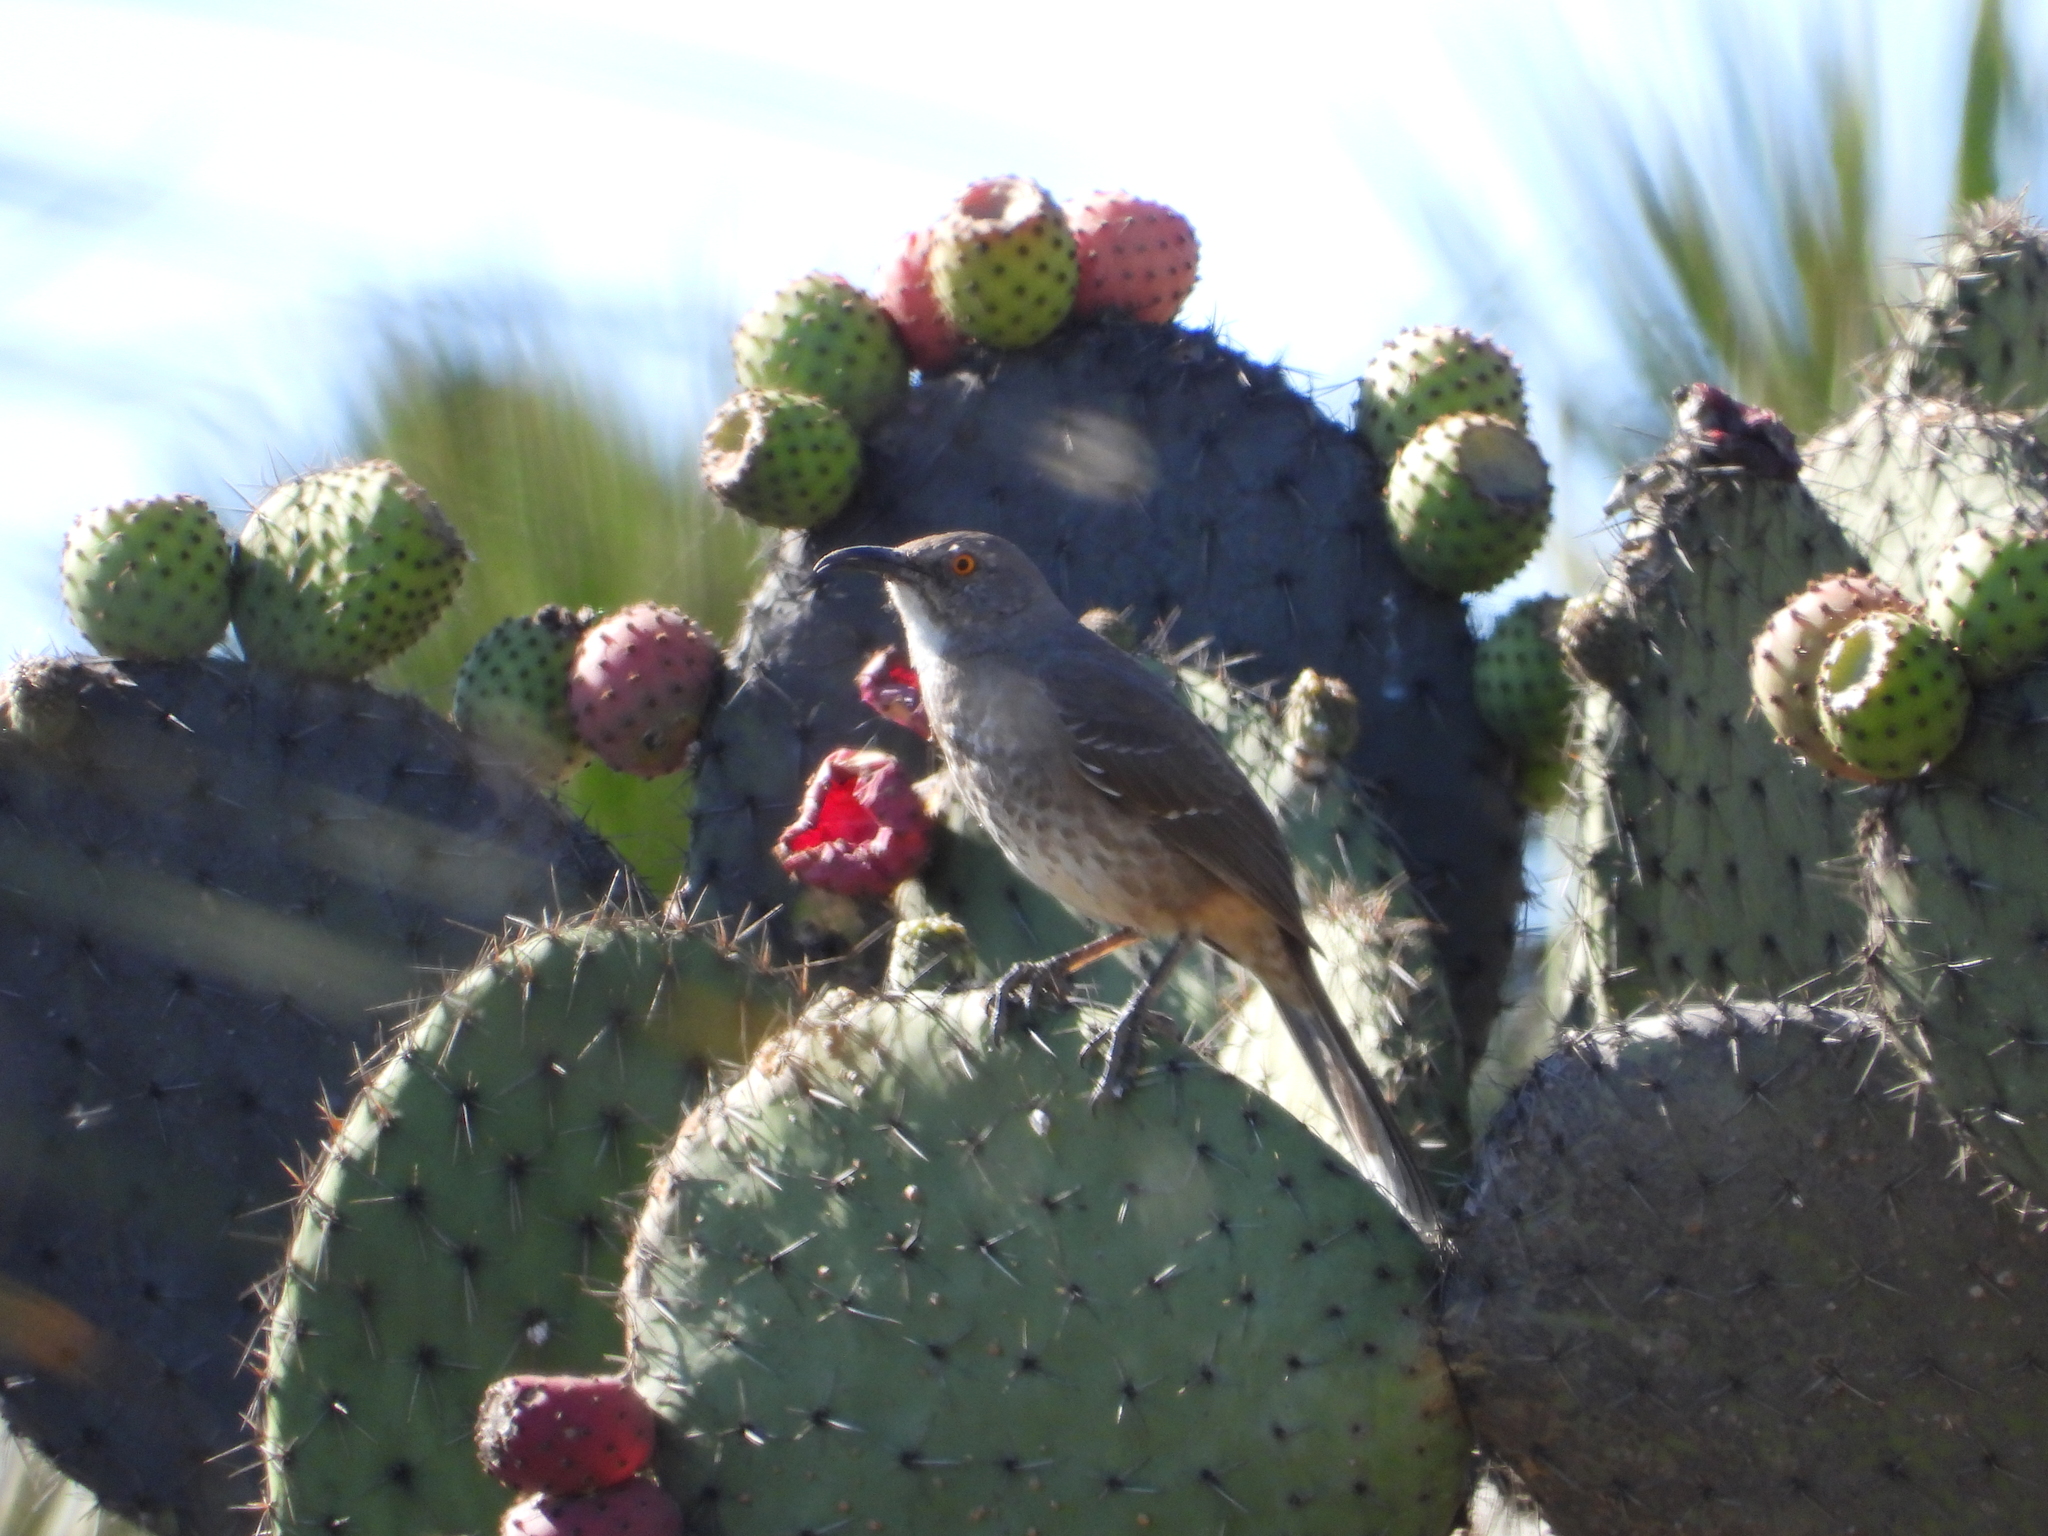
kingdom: Animalia
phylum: Chordata
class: Aves
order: Passeriformes
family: Mimidae
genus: Toxostoma
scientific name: Toxostoma curvirostre
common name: Curve-billed thrasher
